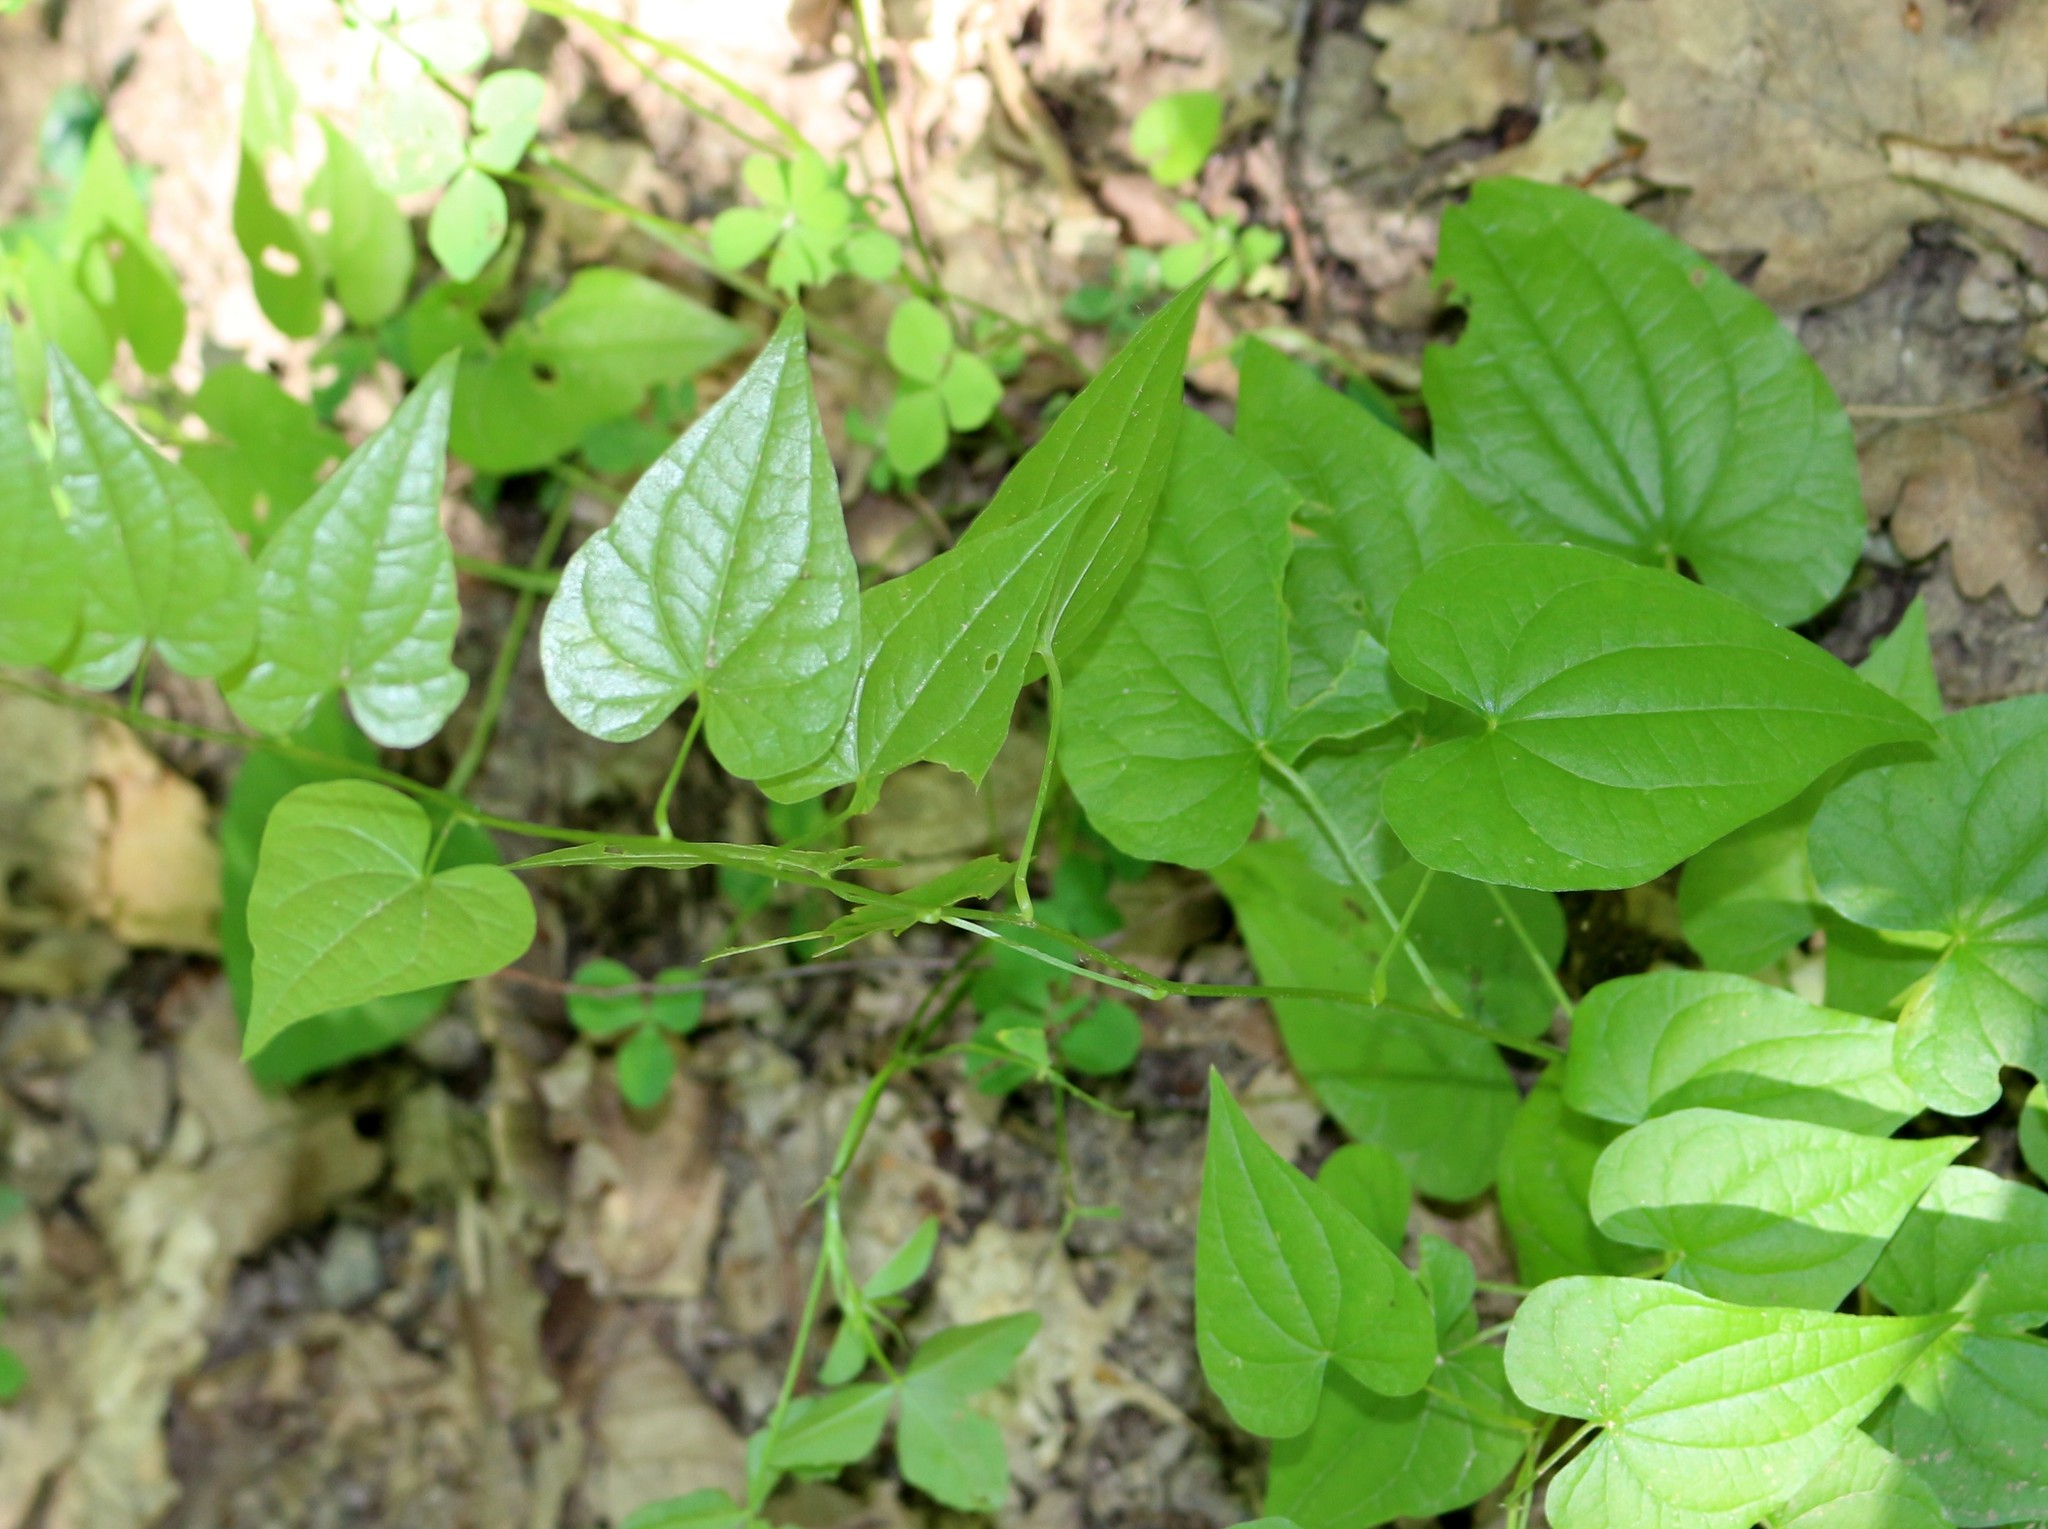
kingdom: Plantae
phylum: Tracheophyta
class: Liliopsida
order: Dioscoreales
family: Dioscoreaceae
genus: Dioscorea
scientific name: Dioscorea communis
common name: Black-bindweed
